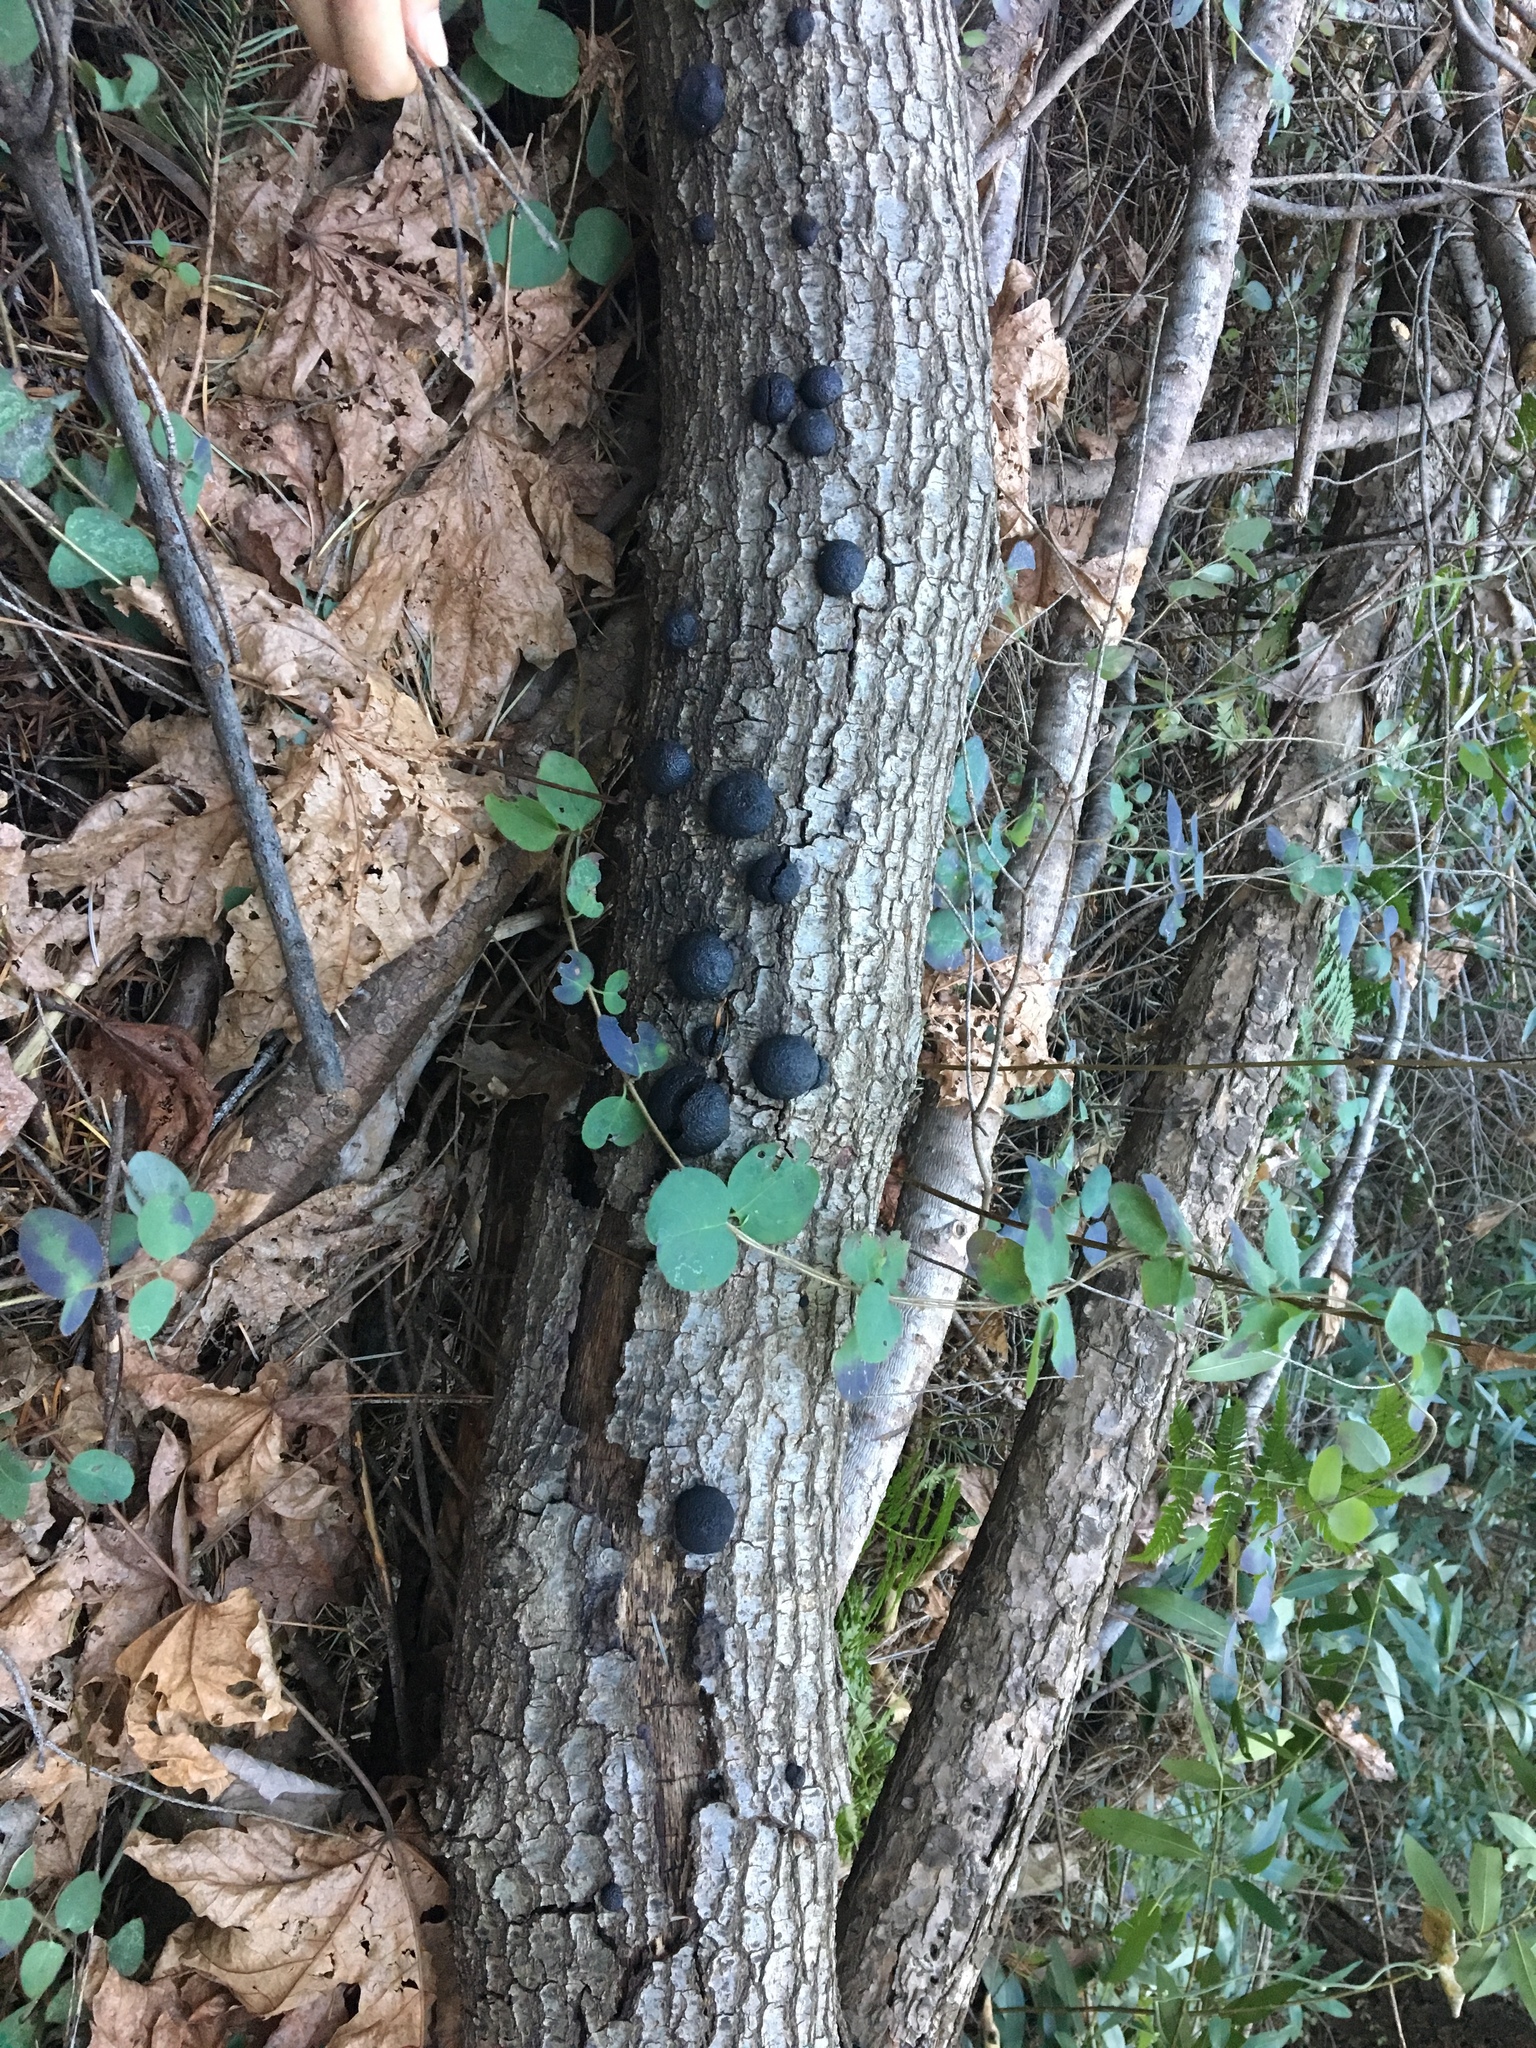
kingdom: Fungi
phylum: Ascomycota
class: Sordariomycetes
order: Xylariales
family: Hypoxylaceae
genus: Annulohypoxylon
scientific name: Annulohypoxylon thouarsianum
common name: Cramp balls
